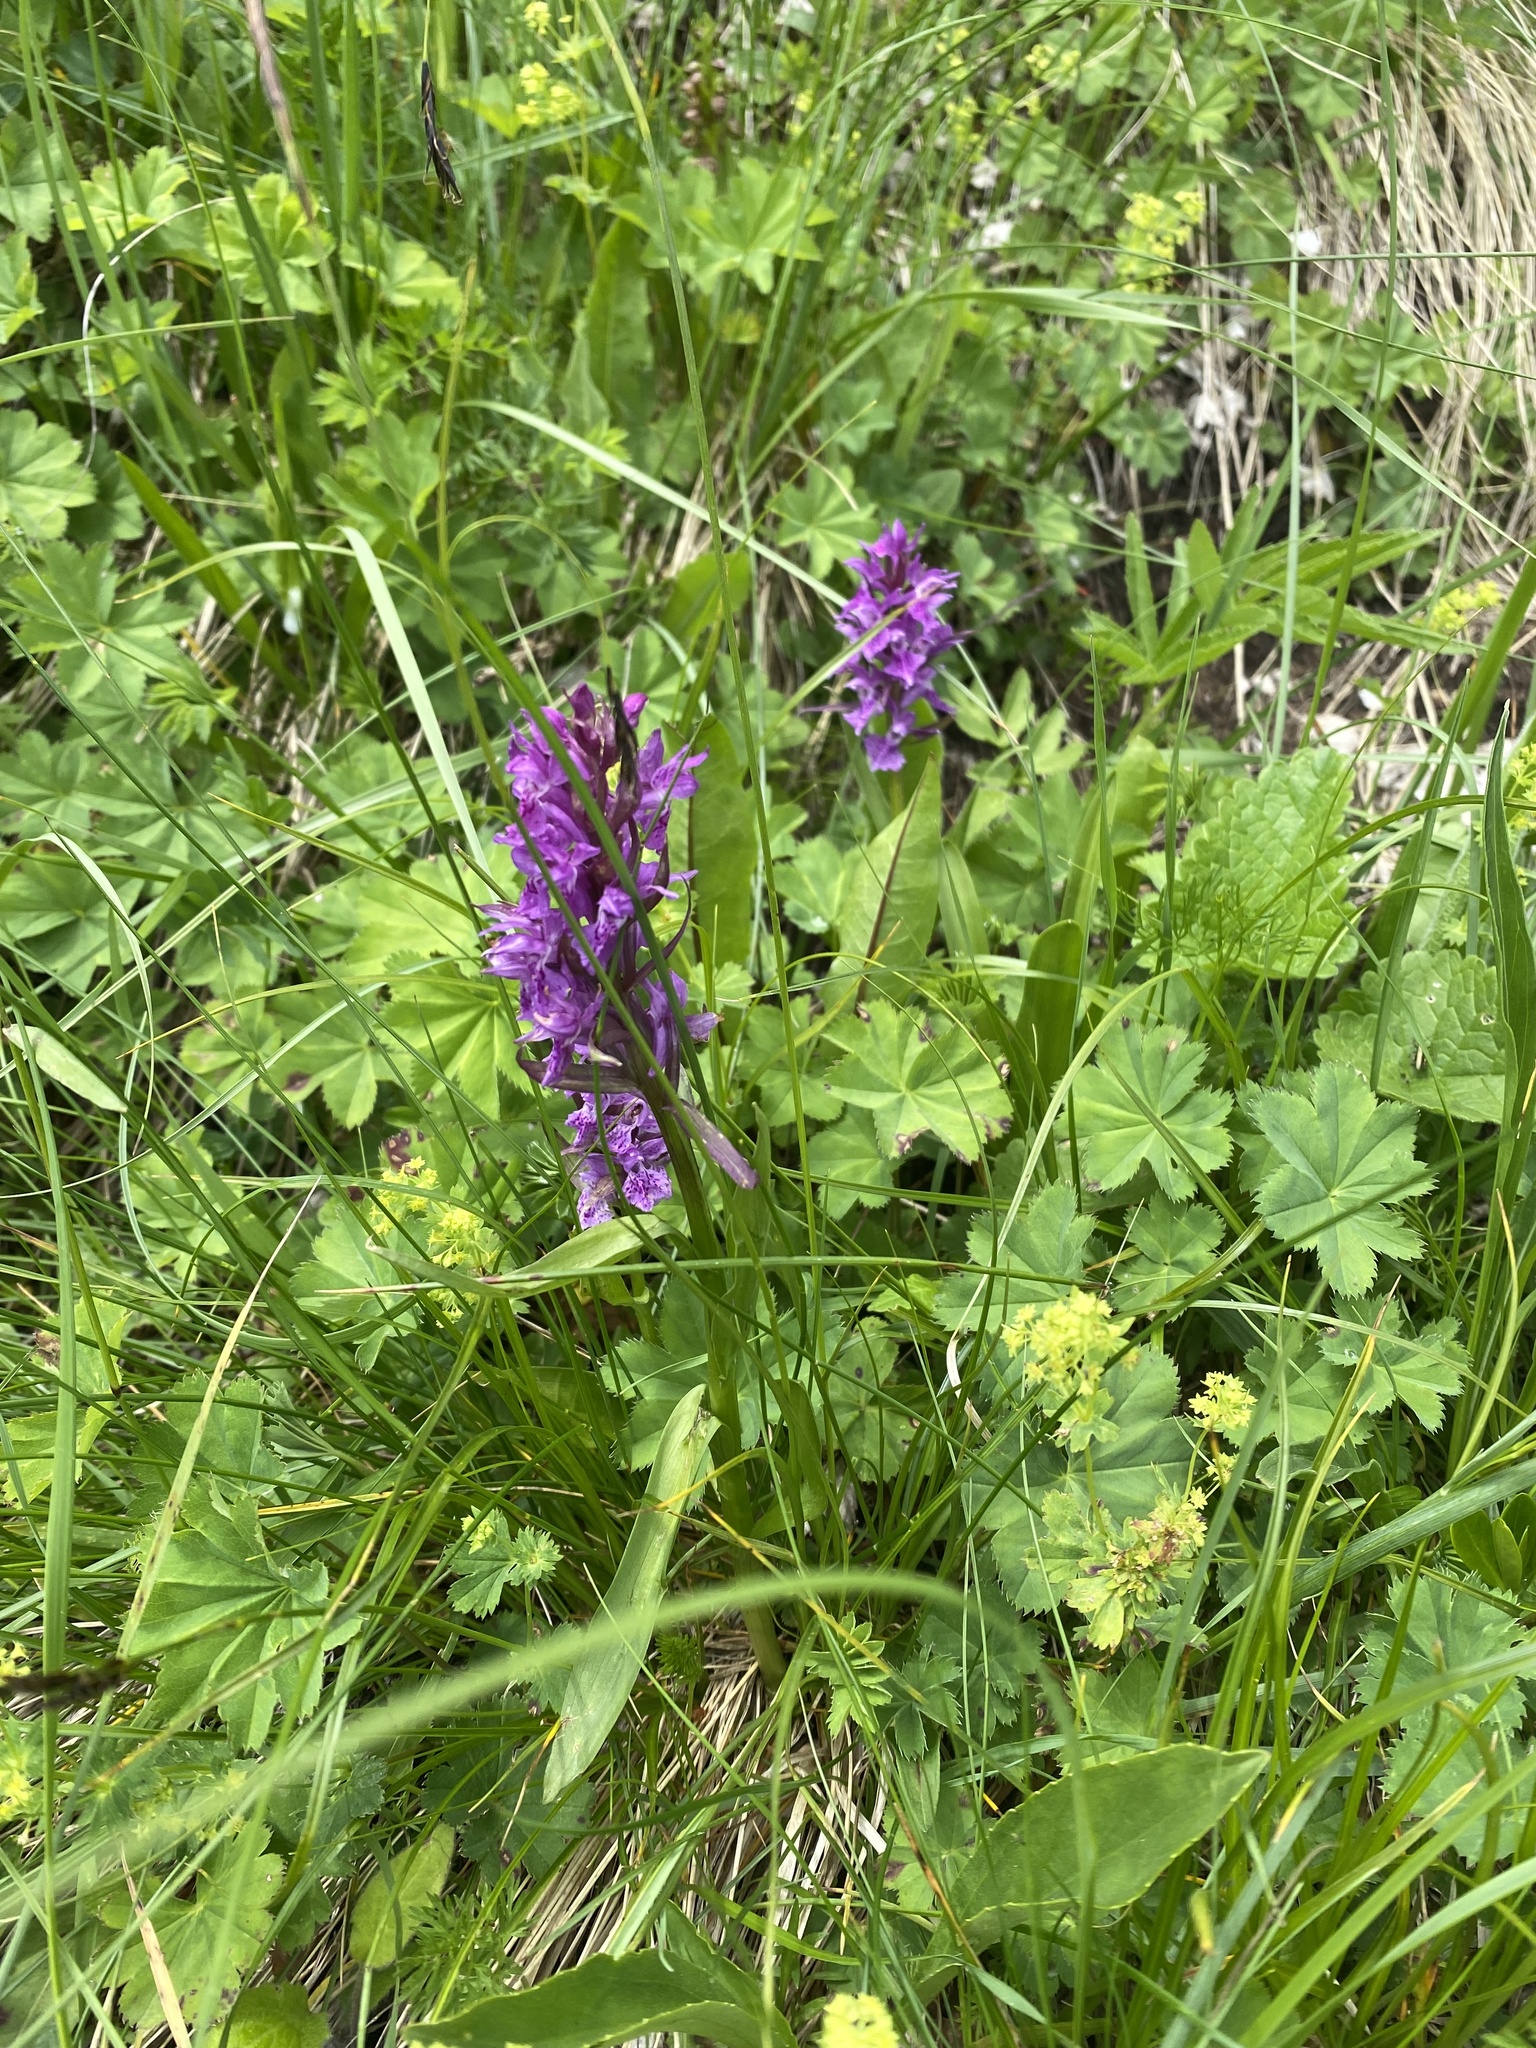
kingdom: Plantae
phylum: Tracheophyta
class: Liliopsida
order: Asparagales
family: Orchidaceae
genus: Dactylorhiza
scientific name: Dactylorhiza euxina
